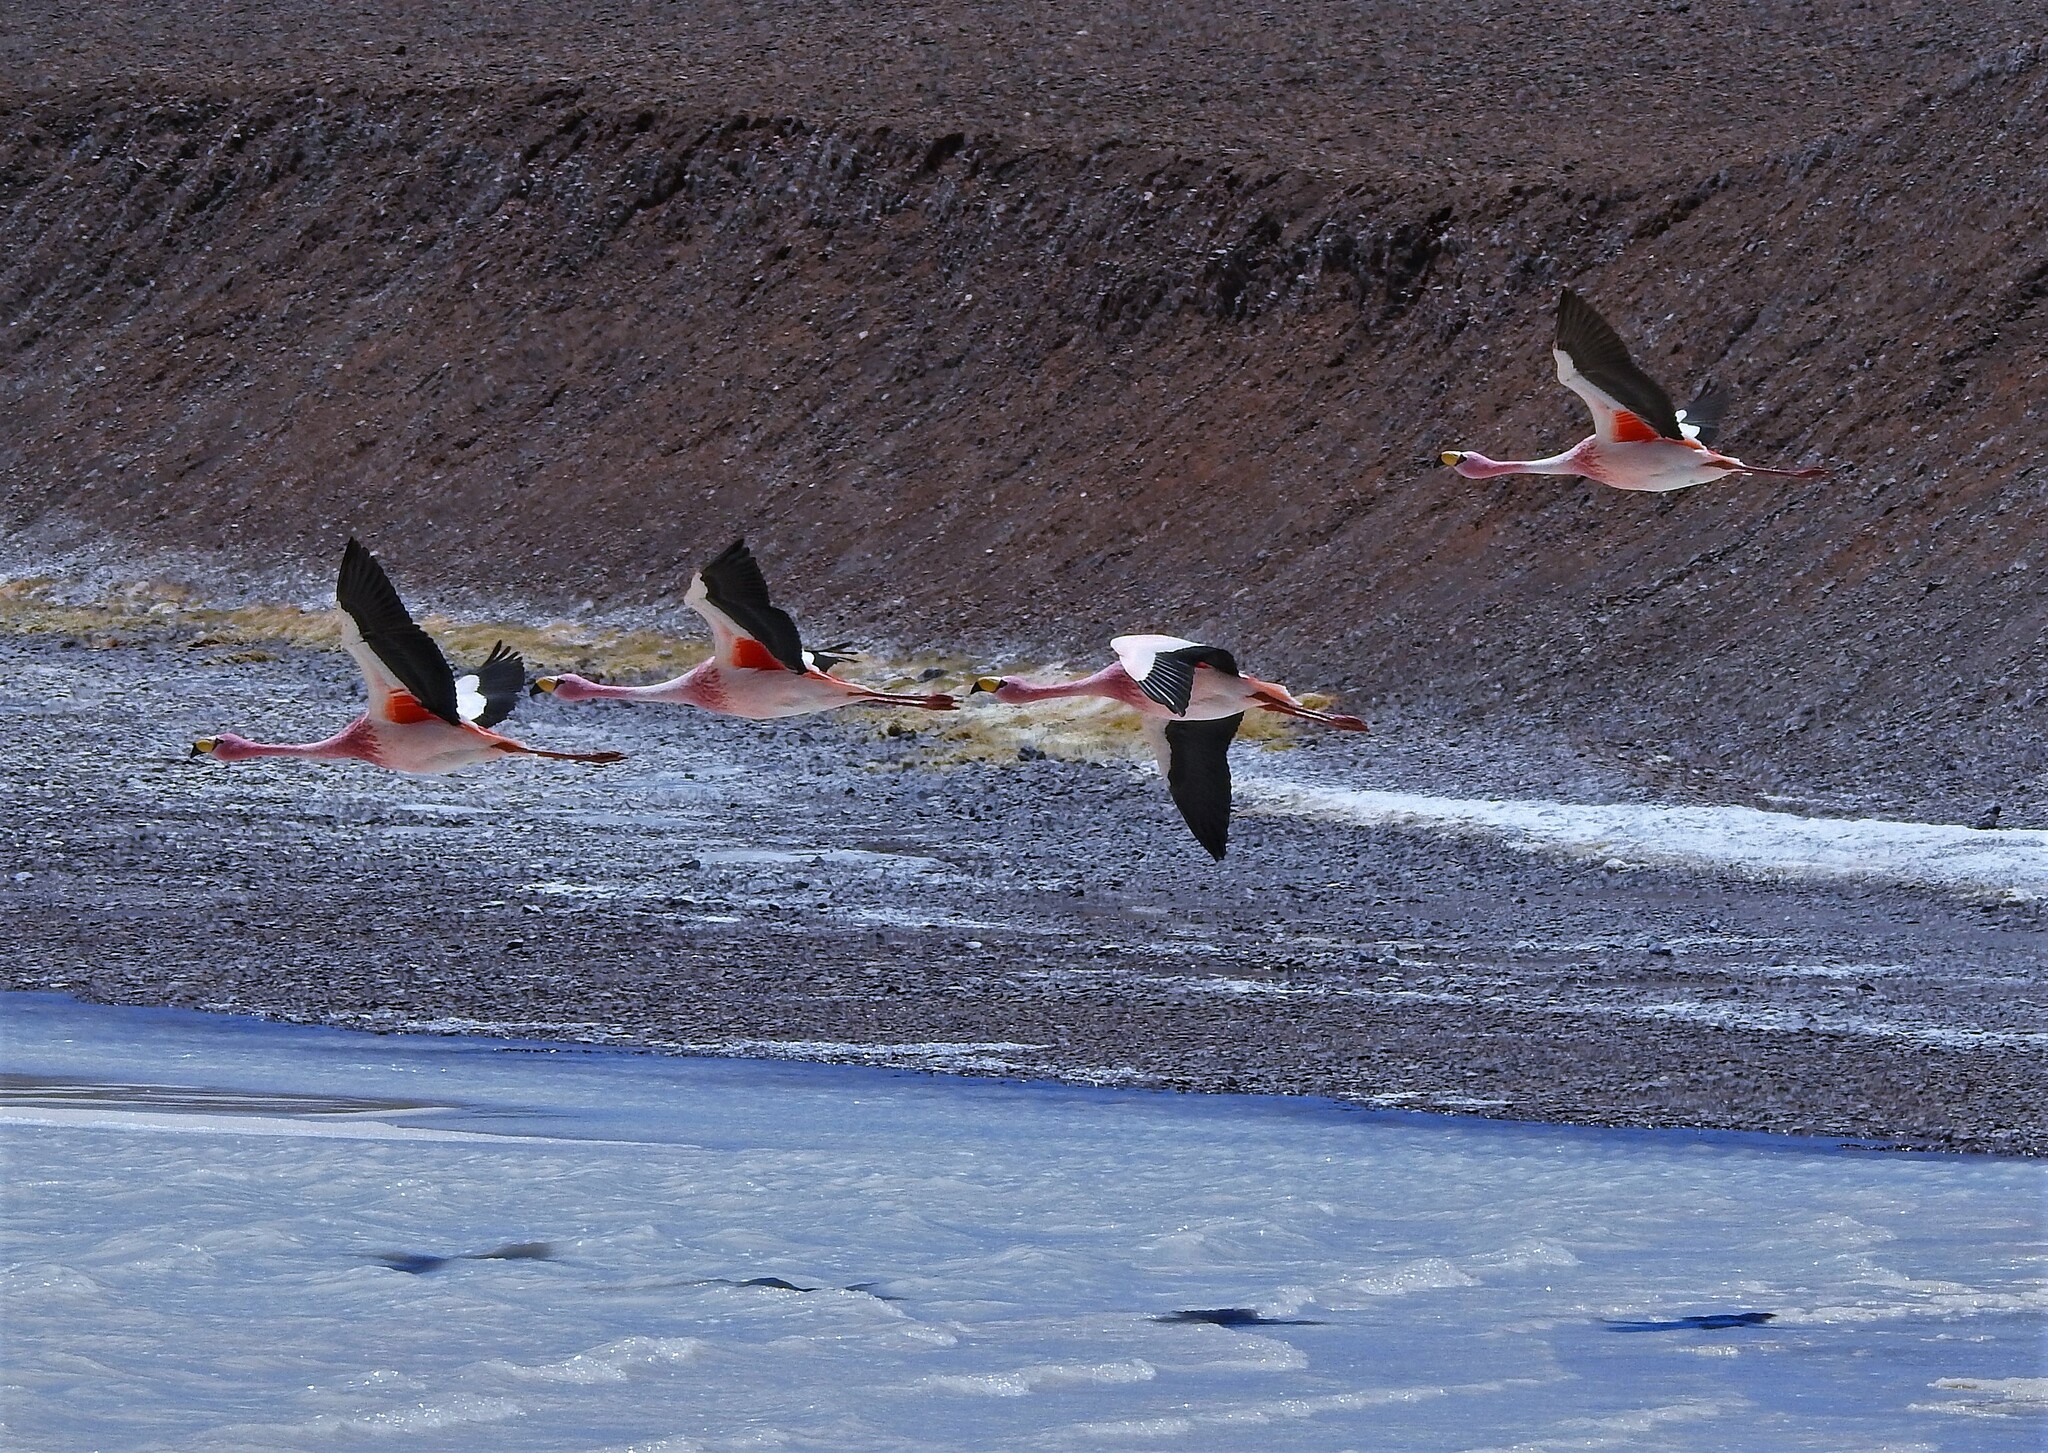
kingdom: Animalia
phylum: Chordata
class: Aves
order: Phoenicopteriformes
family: Phoenicopteridae
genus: Phoenicoparrus
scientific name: Phoenicoparrus jamesi
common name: James's flamingo
